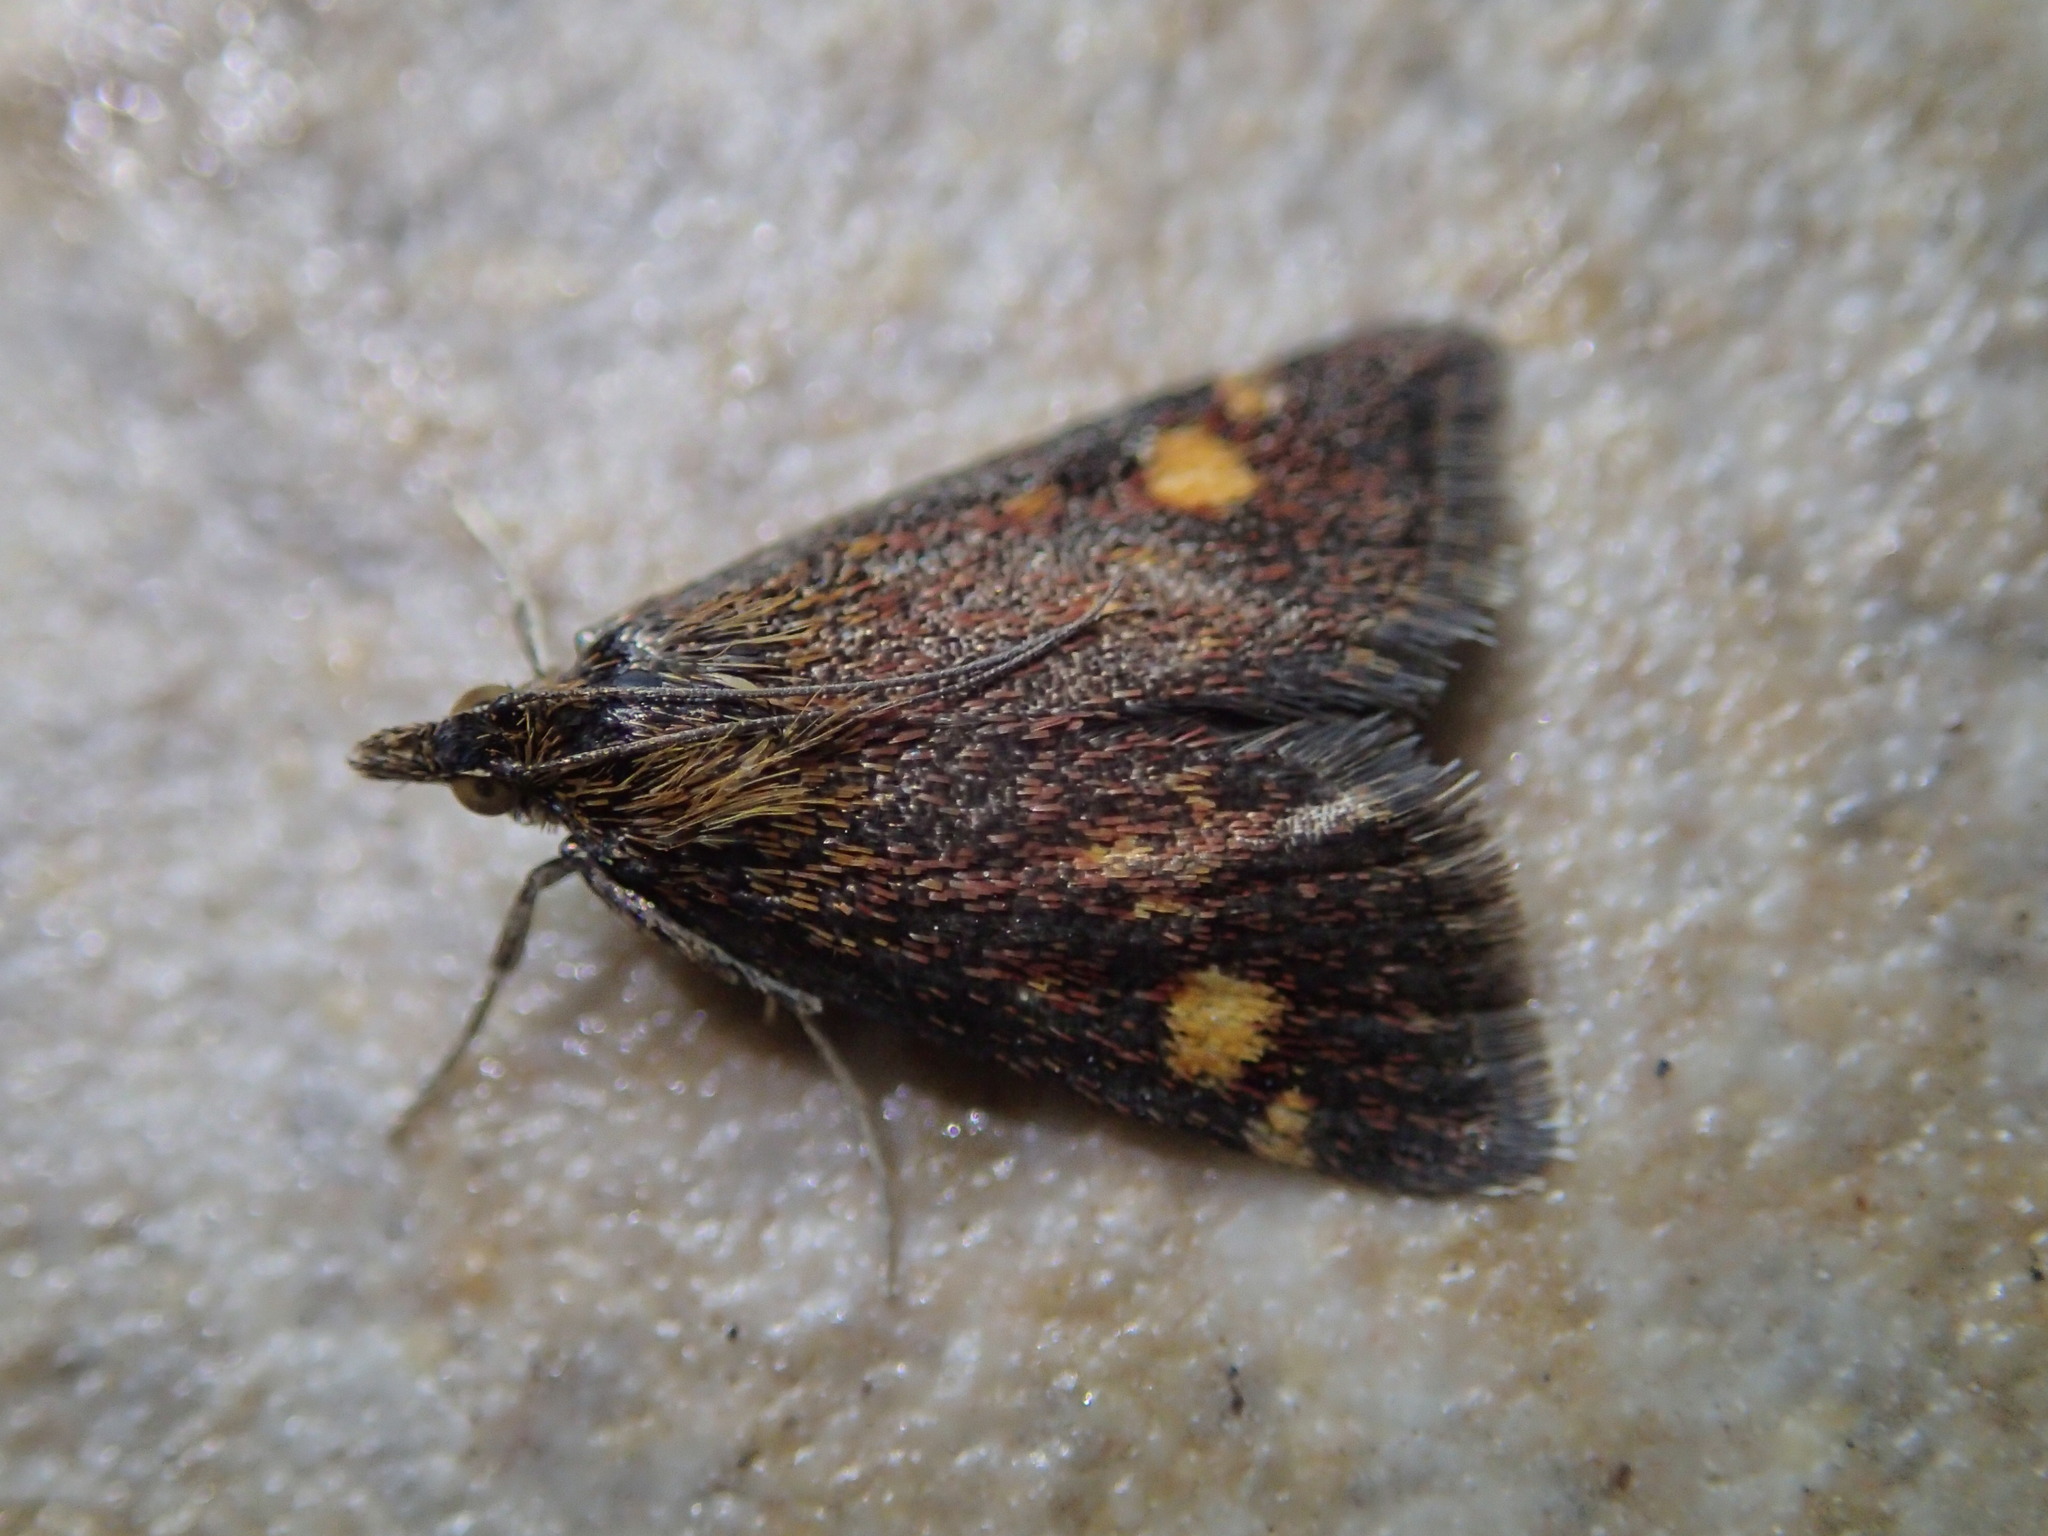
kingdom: Animalia
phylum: Arthropoda
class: Insecta
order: Lepidoptera
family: Crambidae
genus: Pyrausta
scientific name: Pyrausta aurata
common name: Small purple & gold
